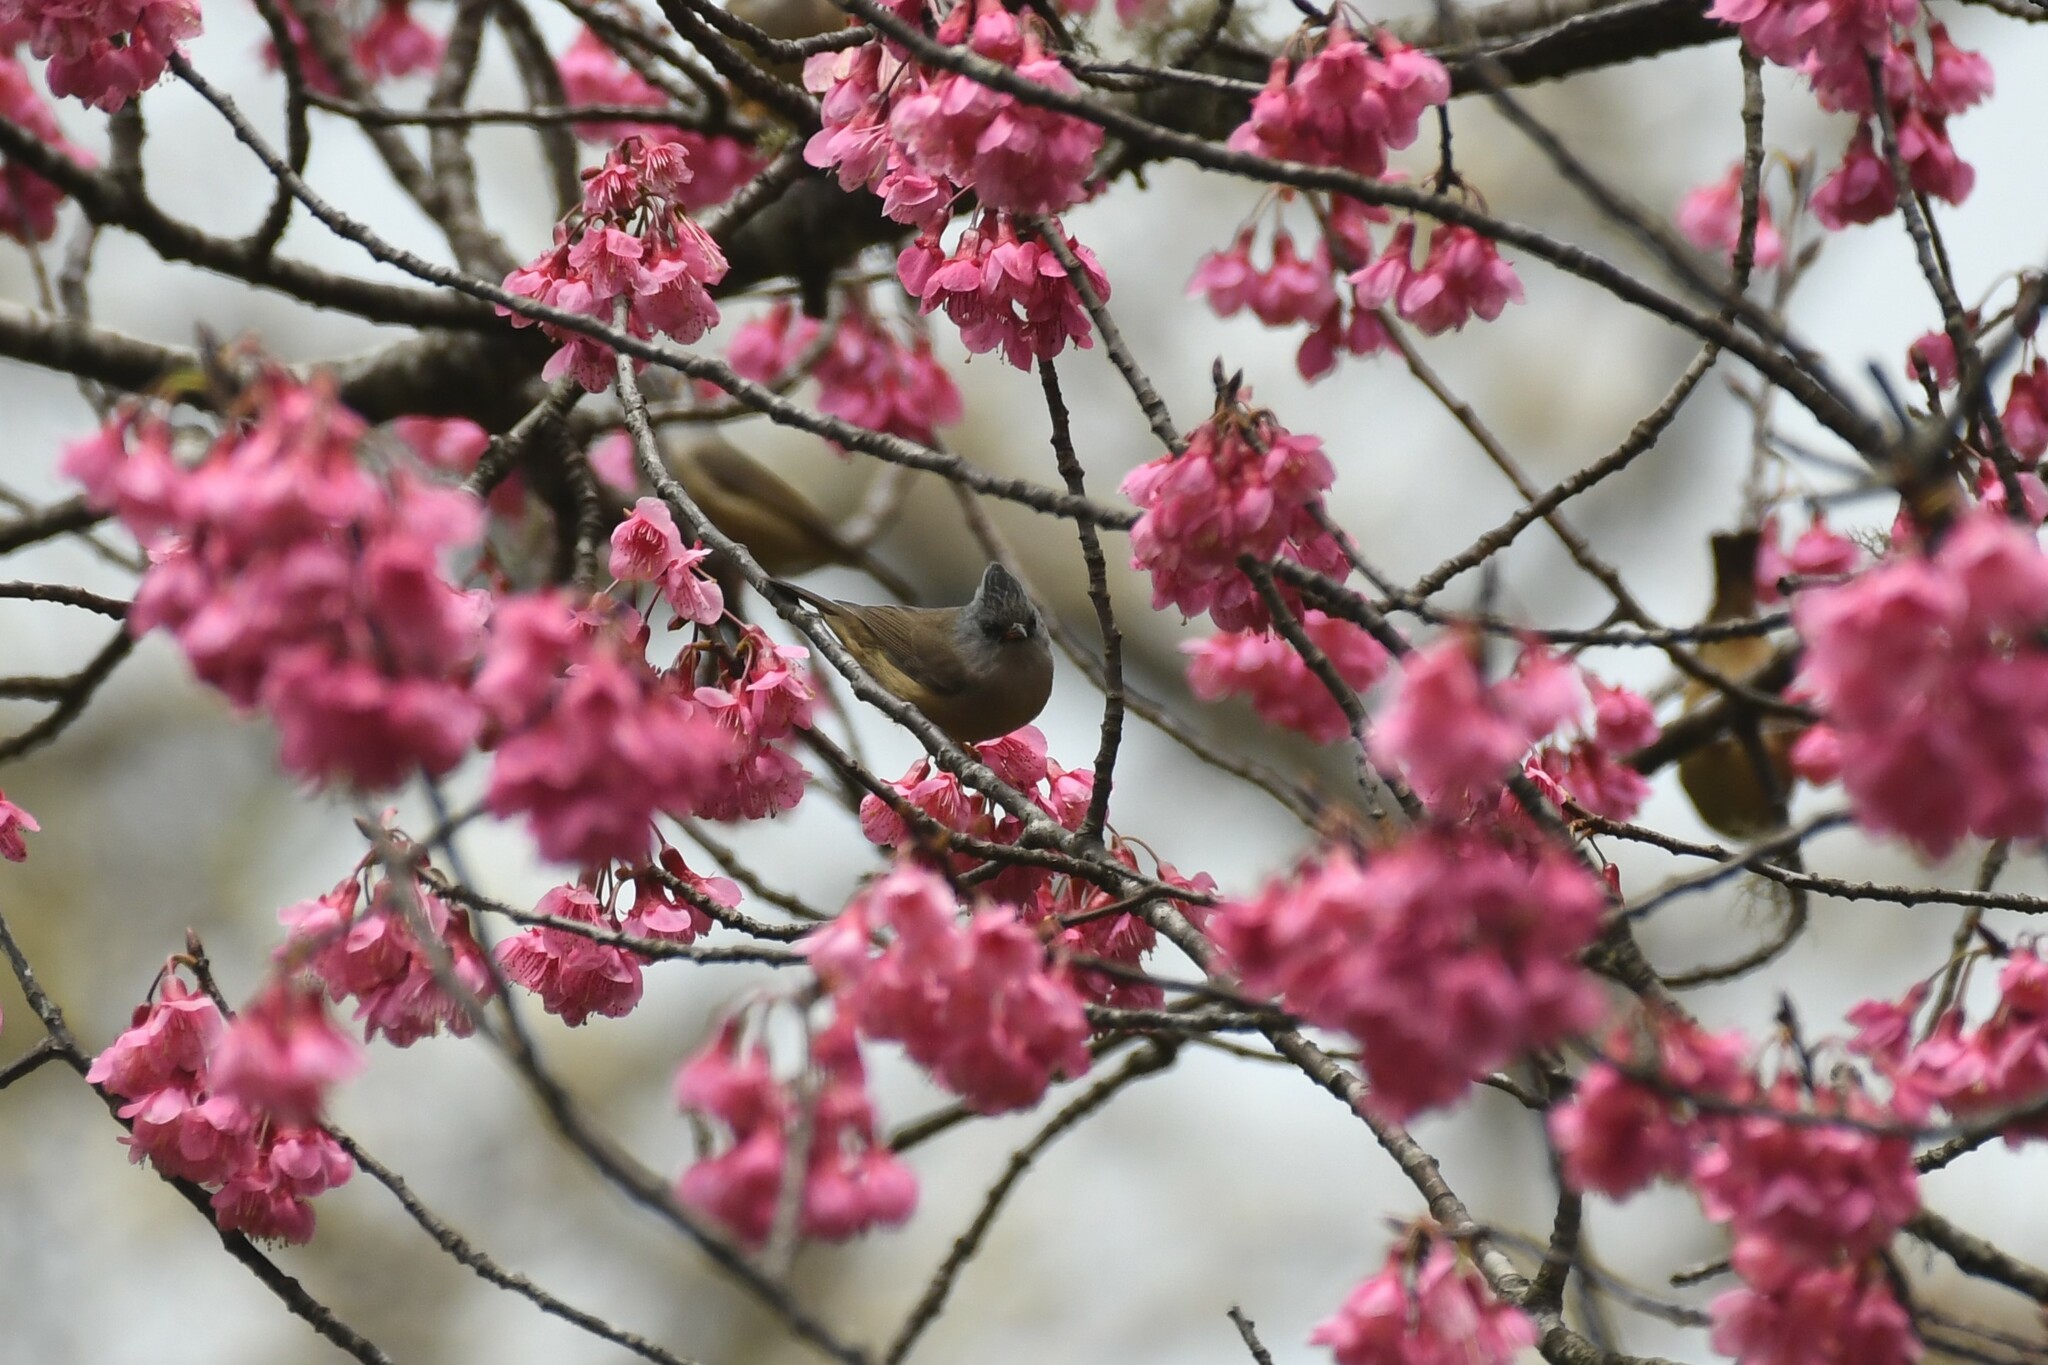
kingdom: Animalia
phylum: Chordata
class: Aves
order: Passeriformes
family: Zosteropidae
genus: Yuhina
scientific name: Yuhina nigrimenta
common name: Black-chinned yuhina
